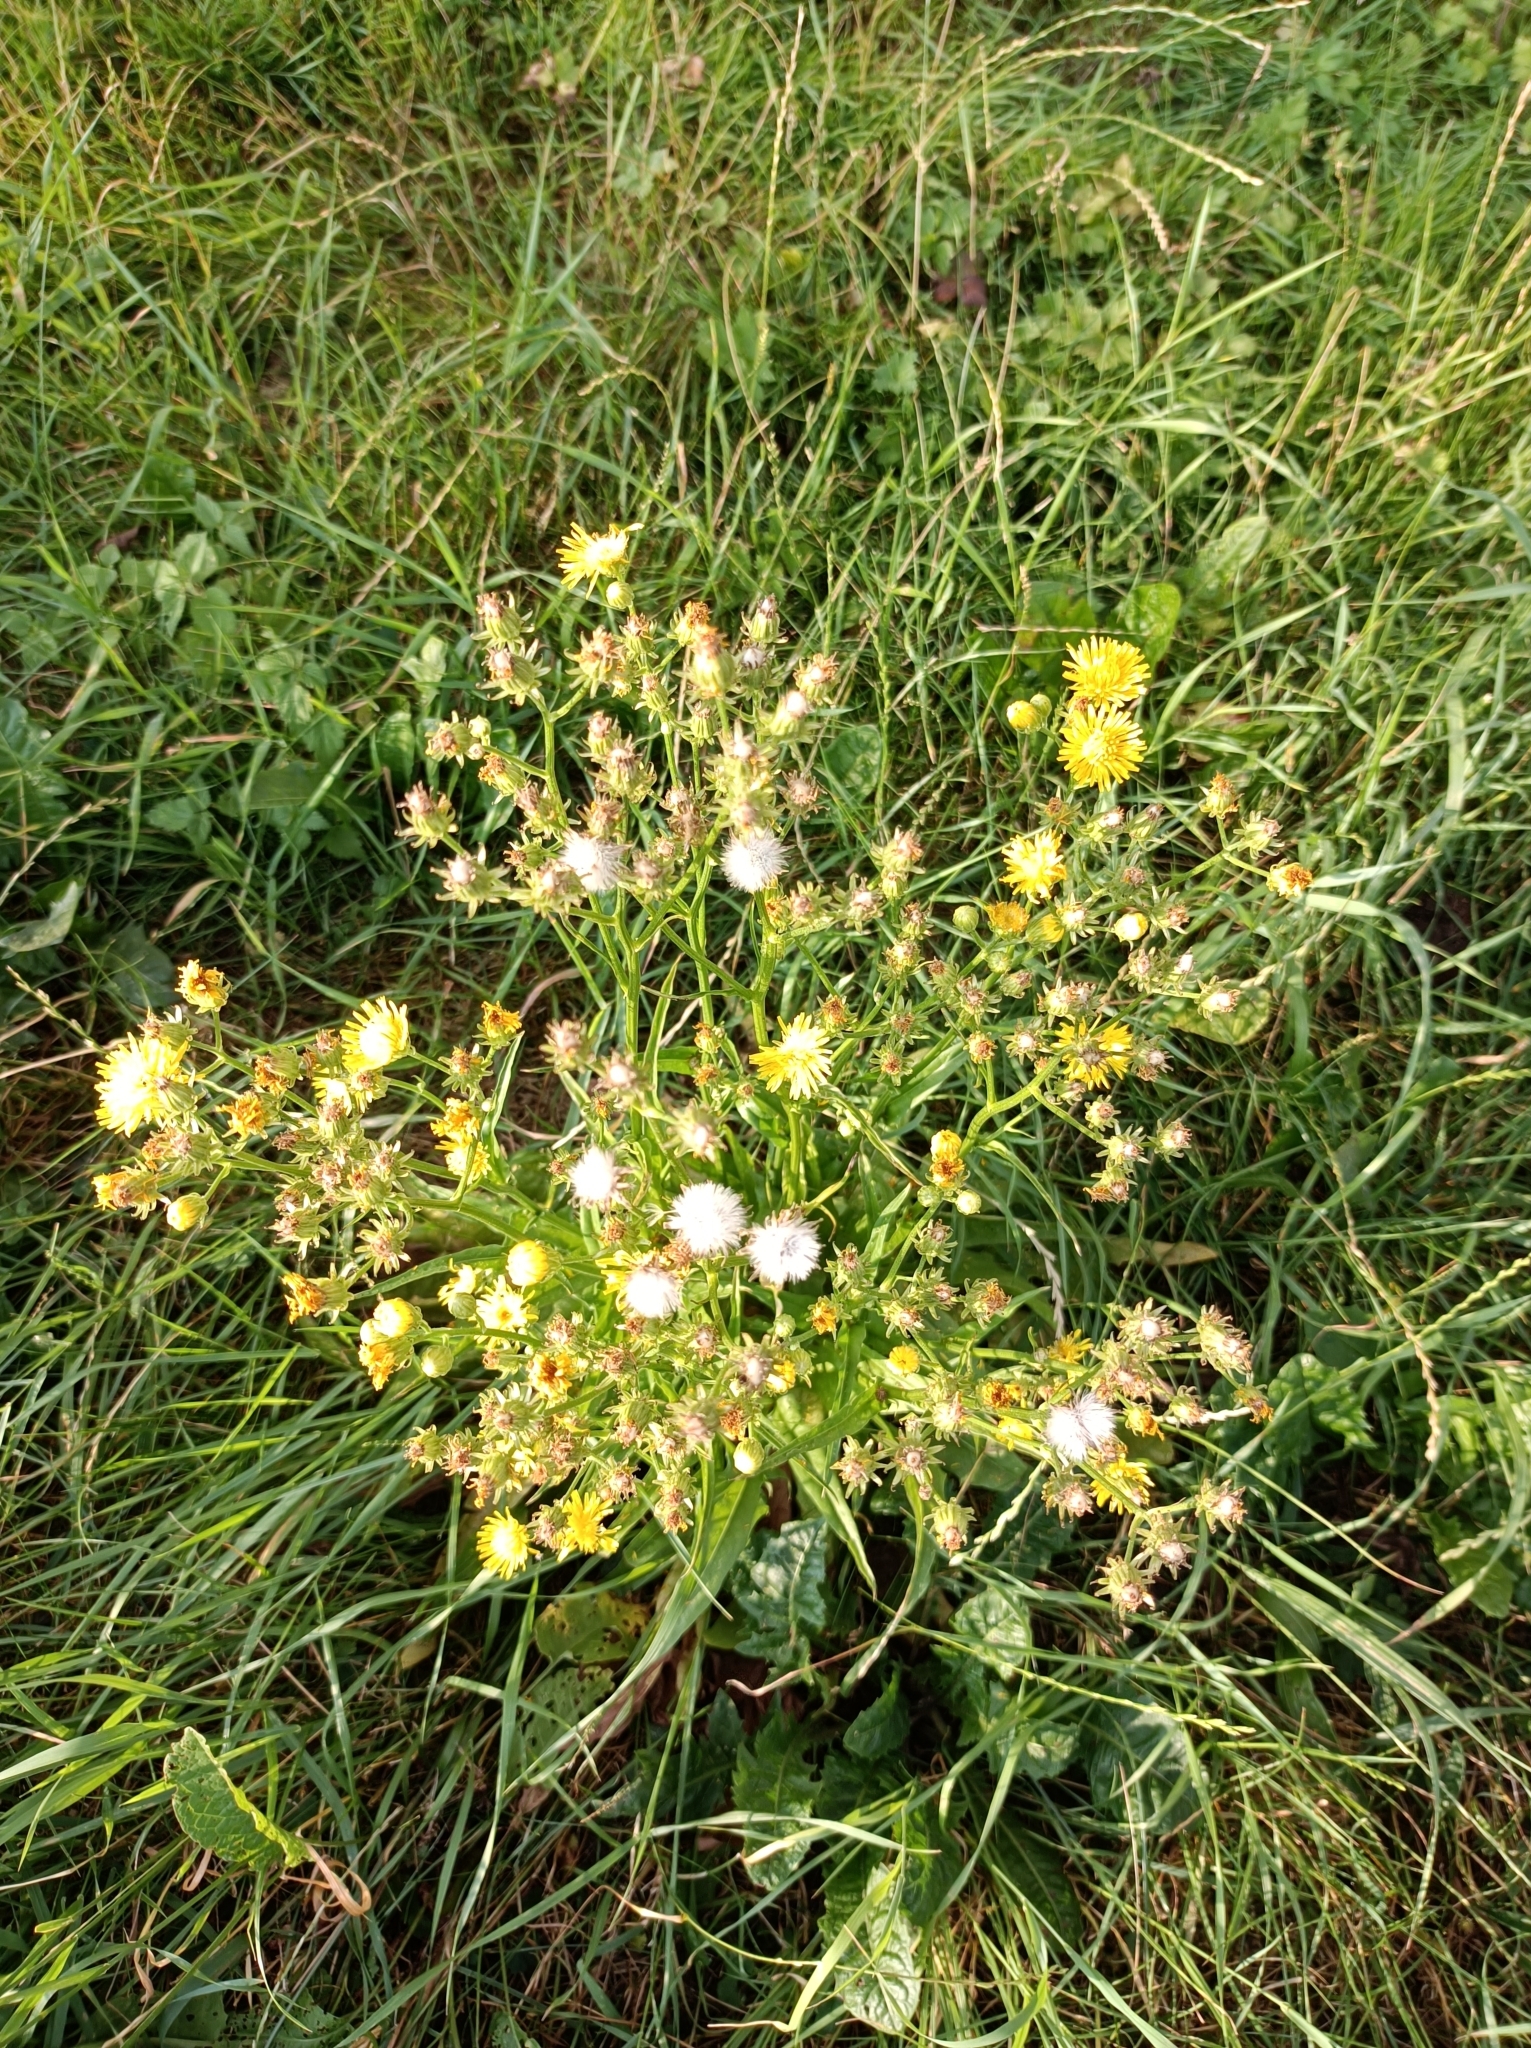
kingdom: Plantae
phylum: Tracheophyta
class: Magnoliopsida
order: Asterales
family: Asteraceae
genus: Crepis
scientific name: Crepis biennis
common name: Rough hawk's-beard
